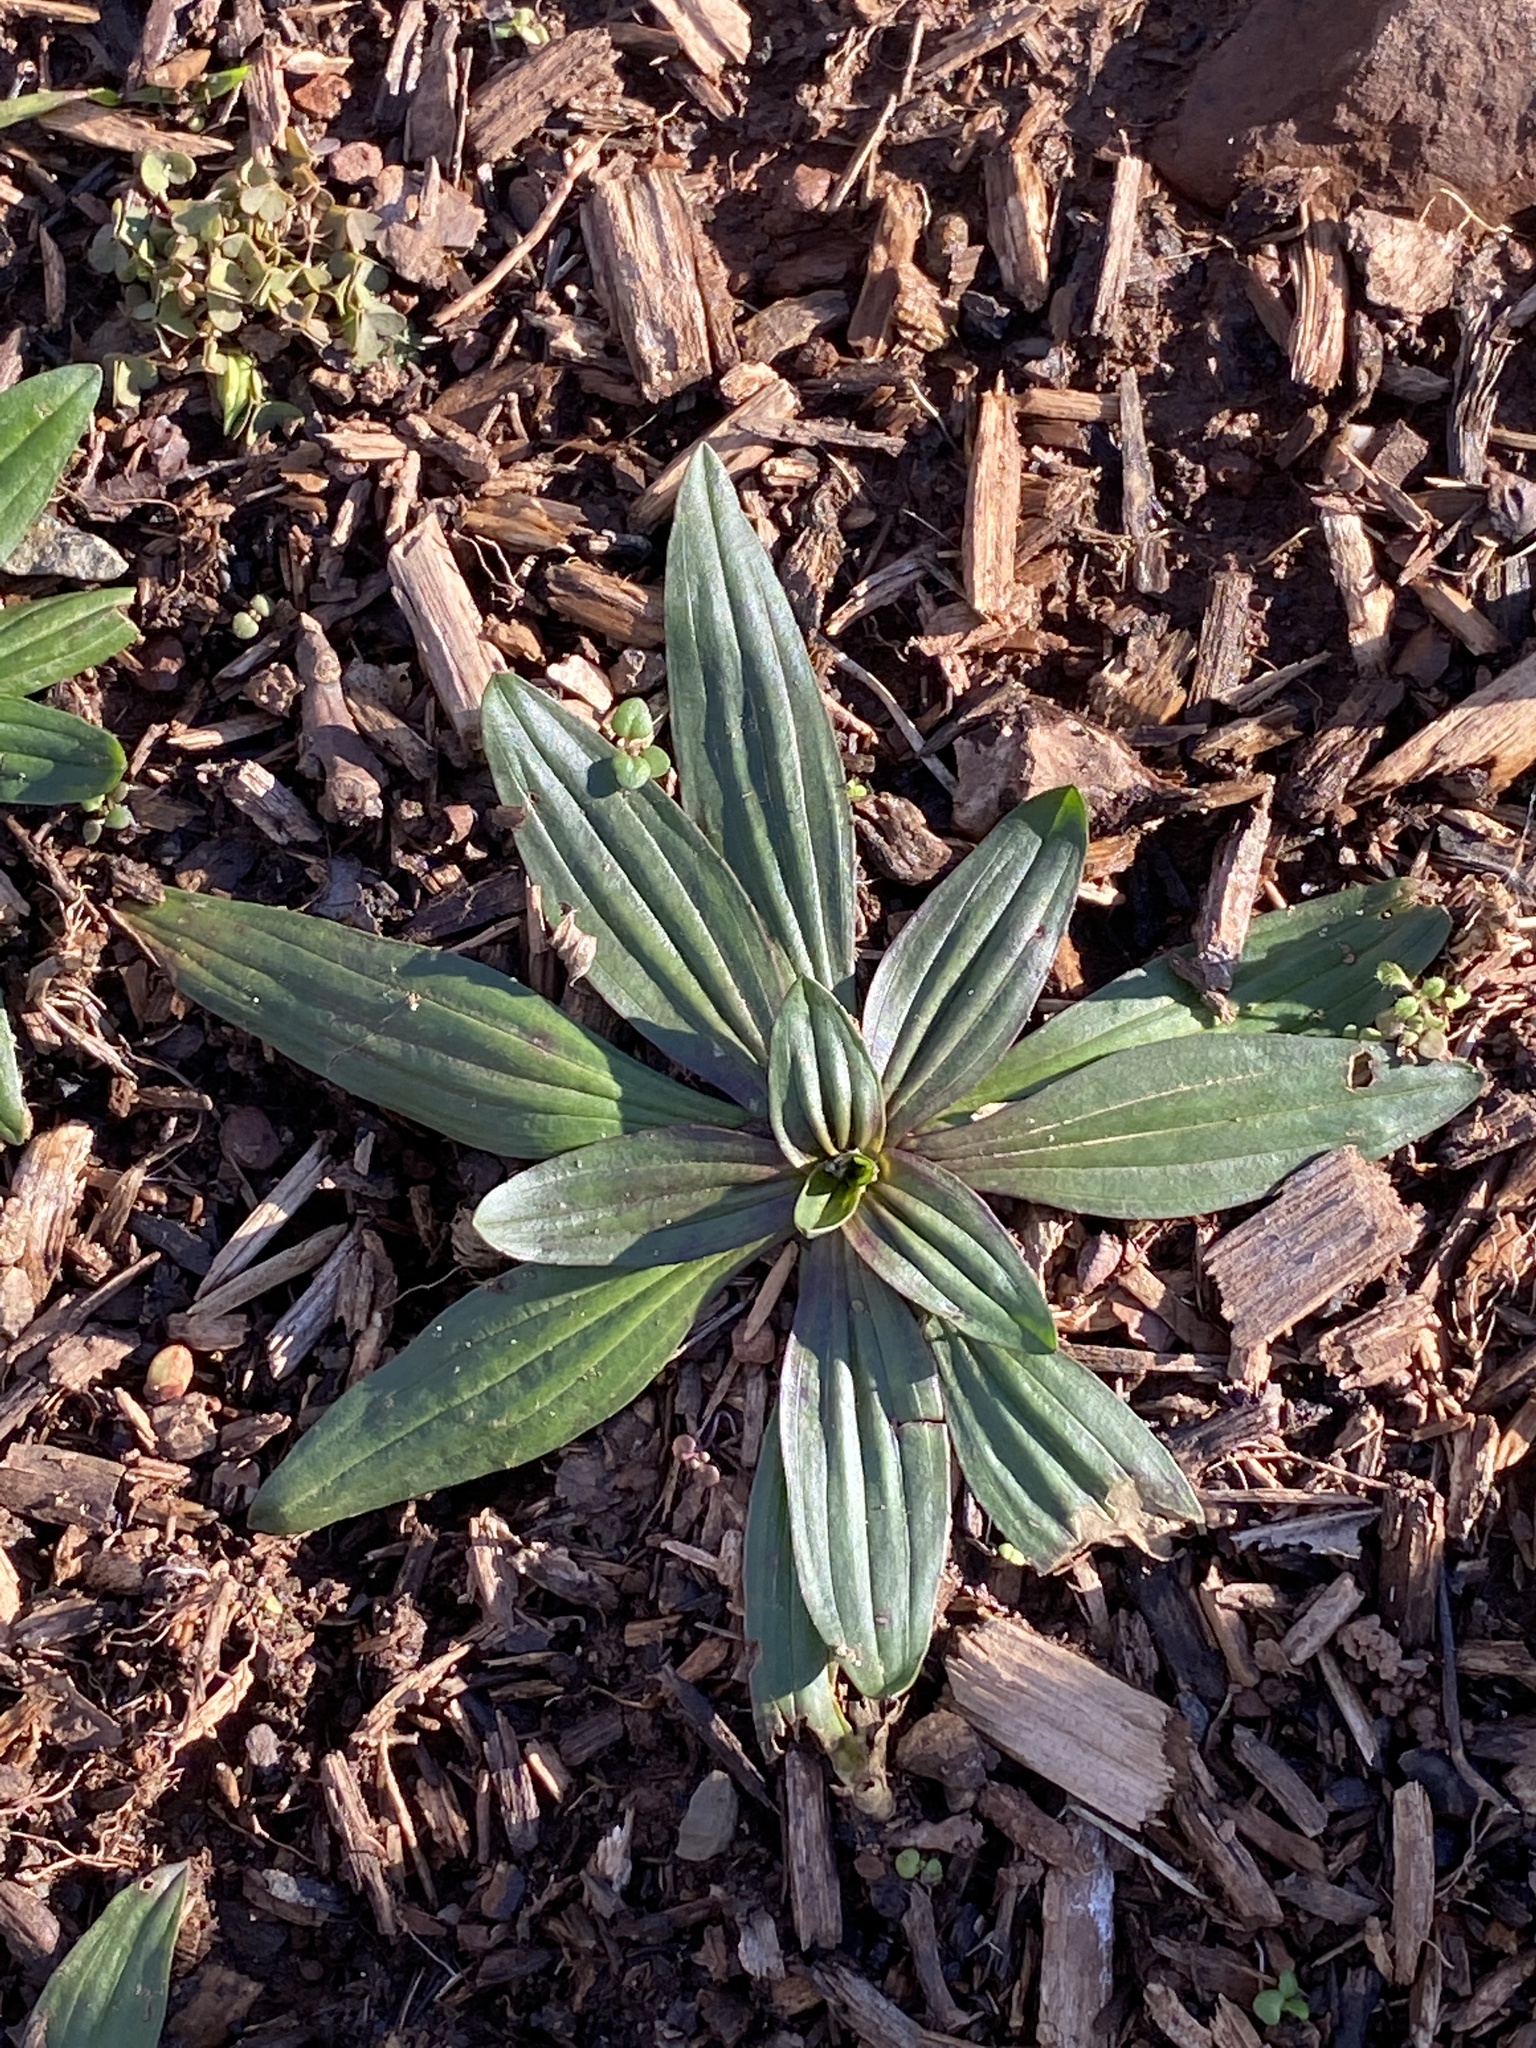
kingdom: Plantae
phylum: Tracheophyta
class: Magnoliopsida
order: Lamiales
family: Plantaginaceae
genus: Plantago
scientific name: Plantago lanceolata
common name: Ribwort plantain
